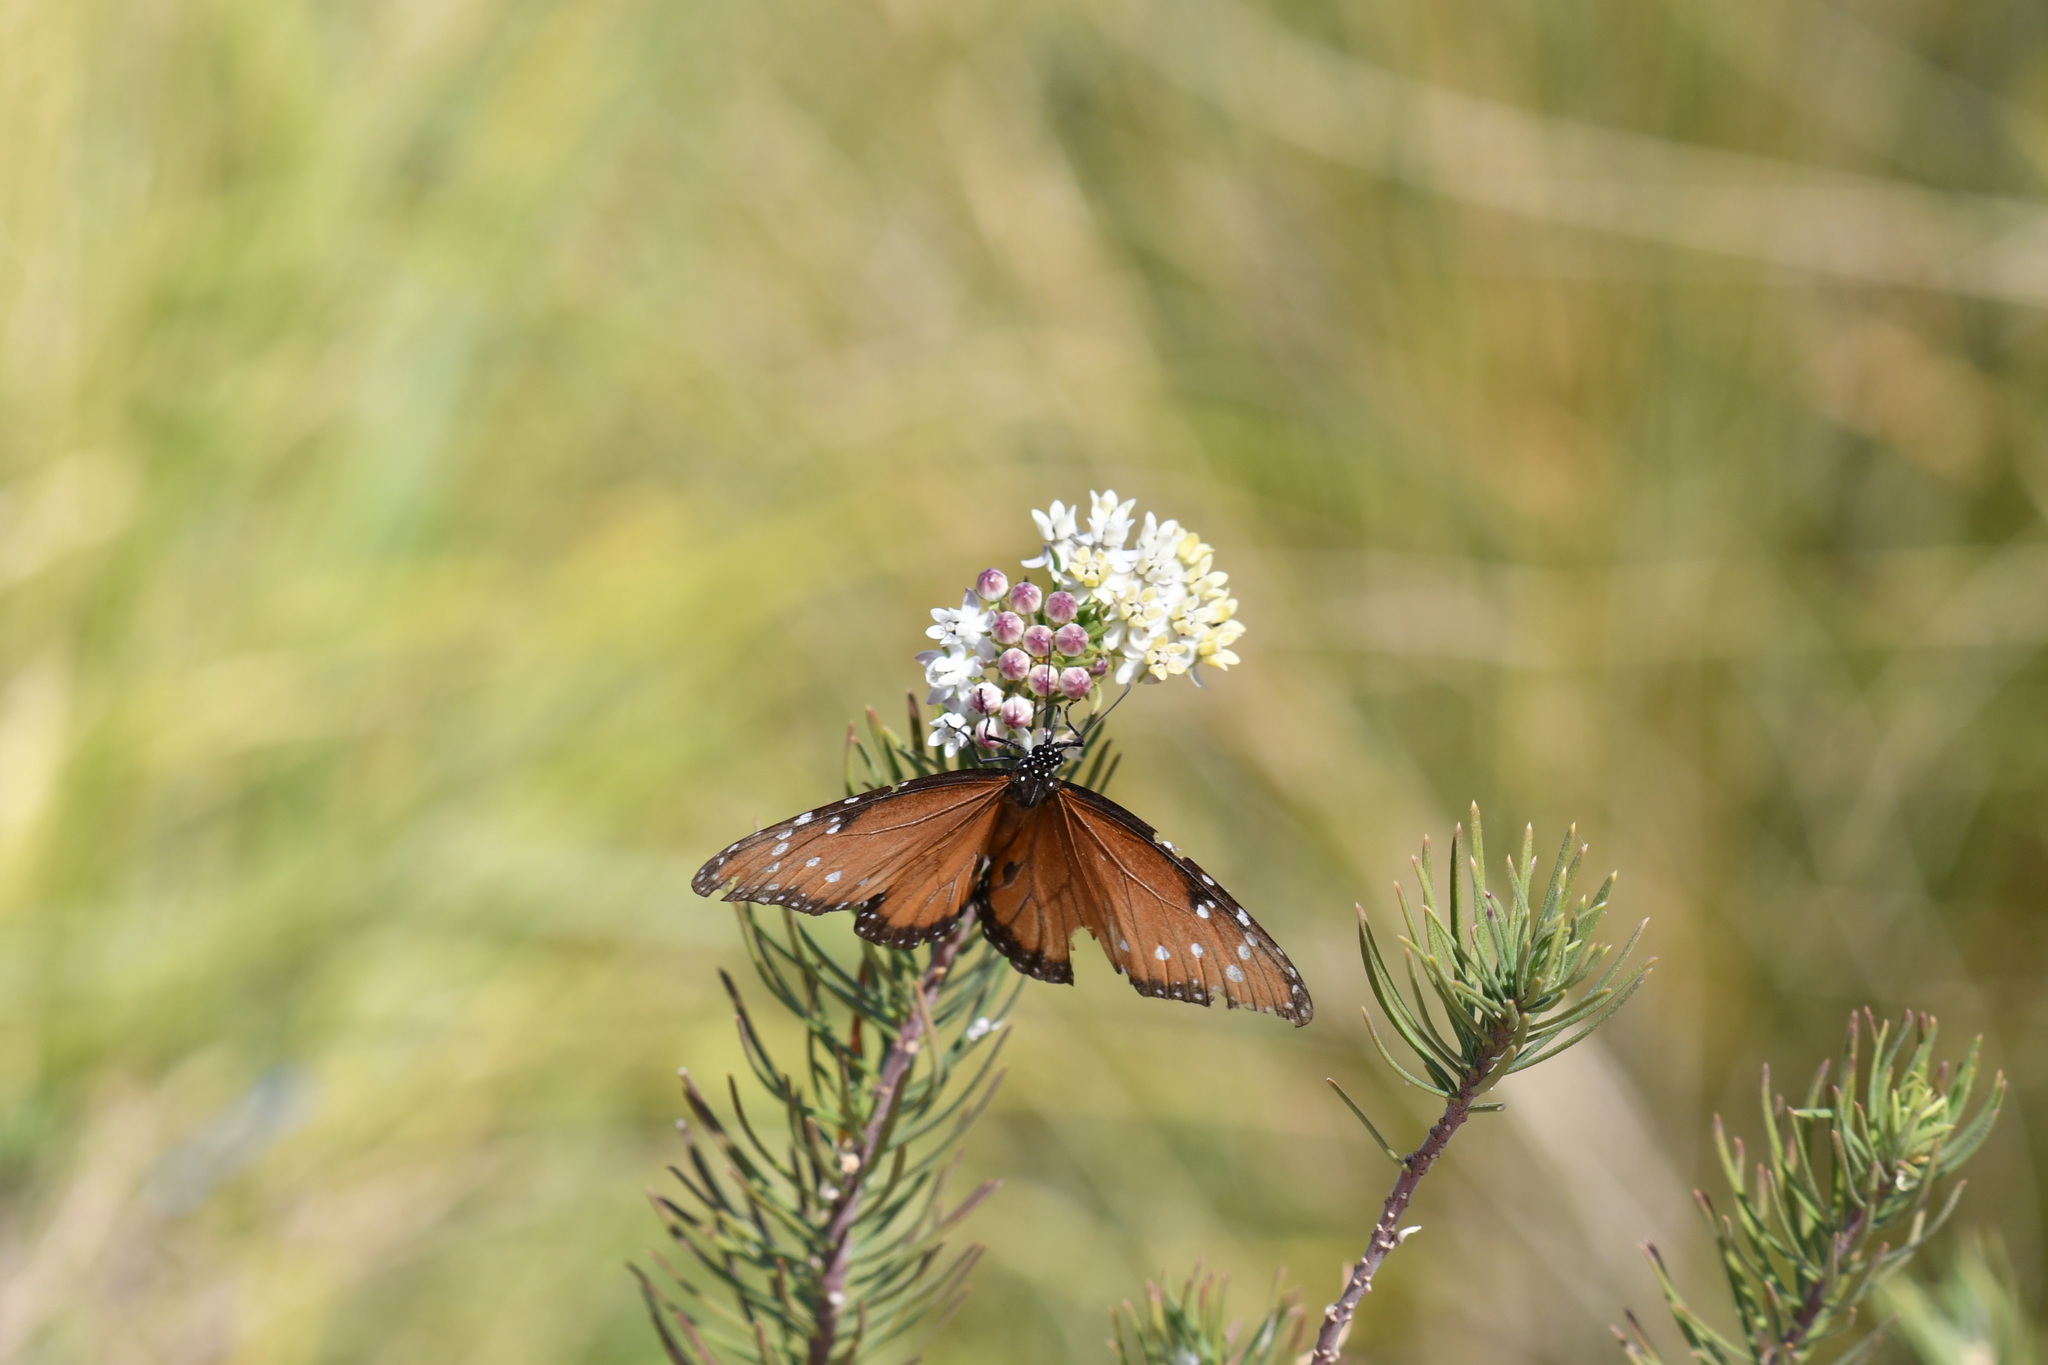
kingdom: Animalia
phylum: Arthropoda
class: Insecta
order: Lepidoptera
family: Nymphalidae
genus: Danaus
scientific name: Danaus gilippus
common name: Queen
